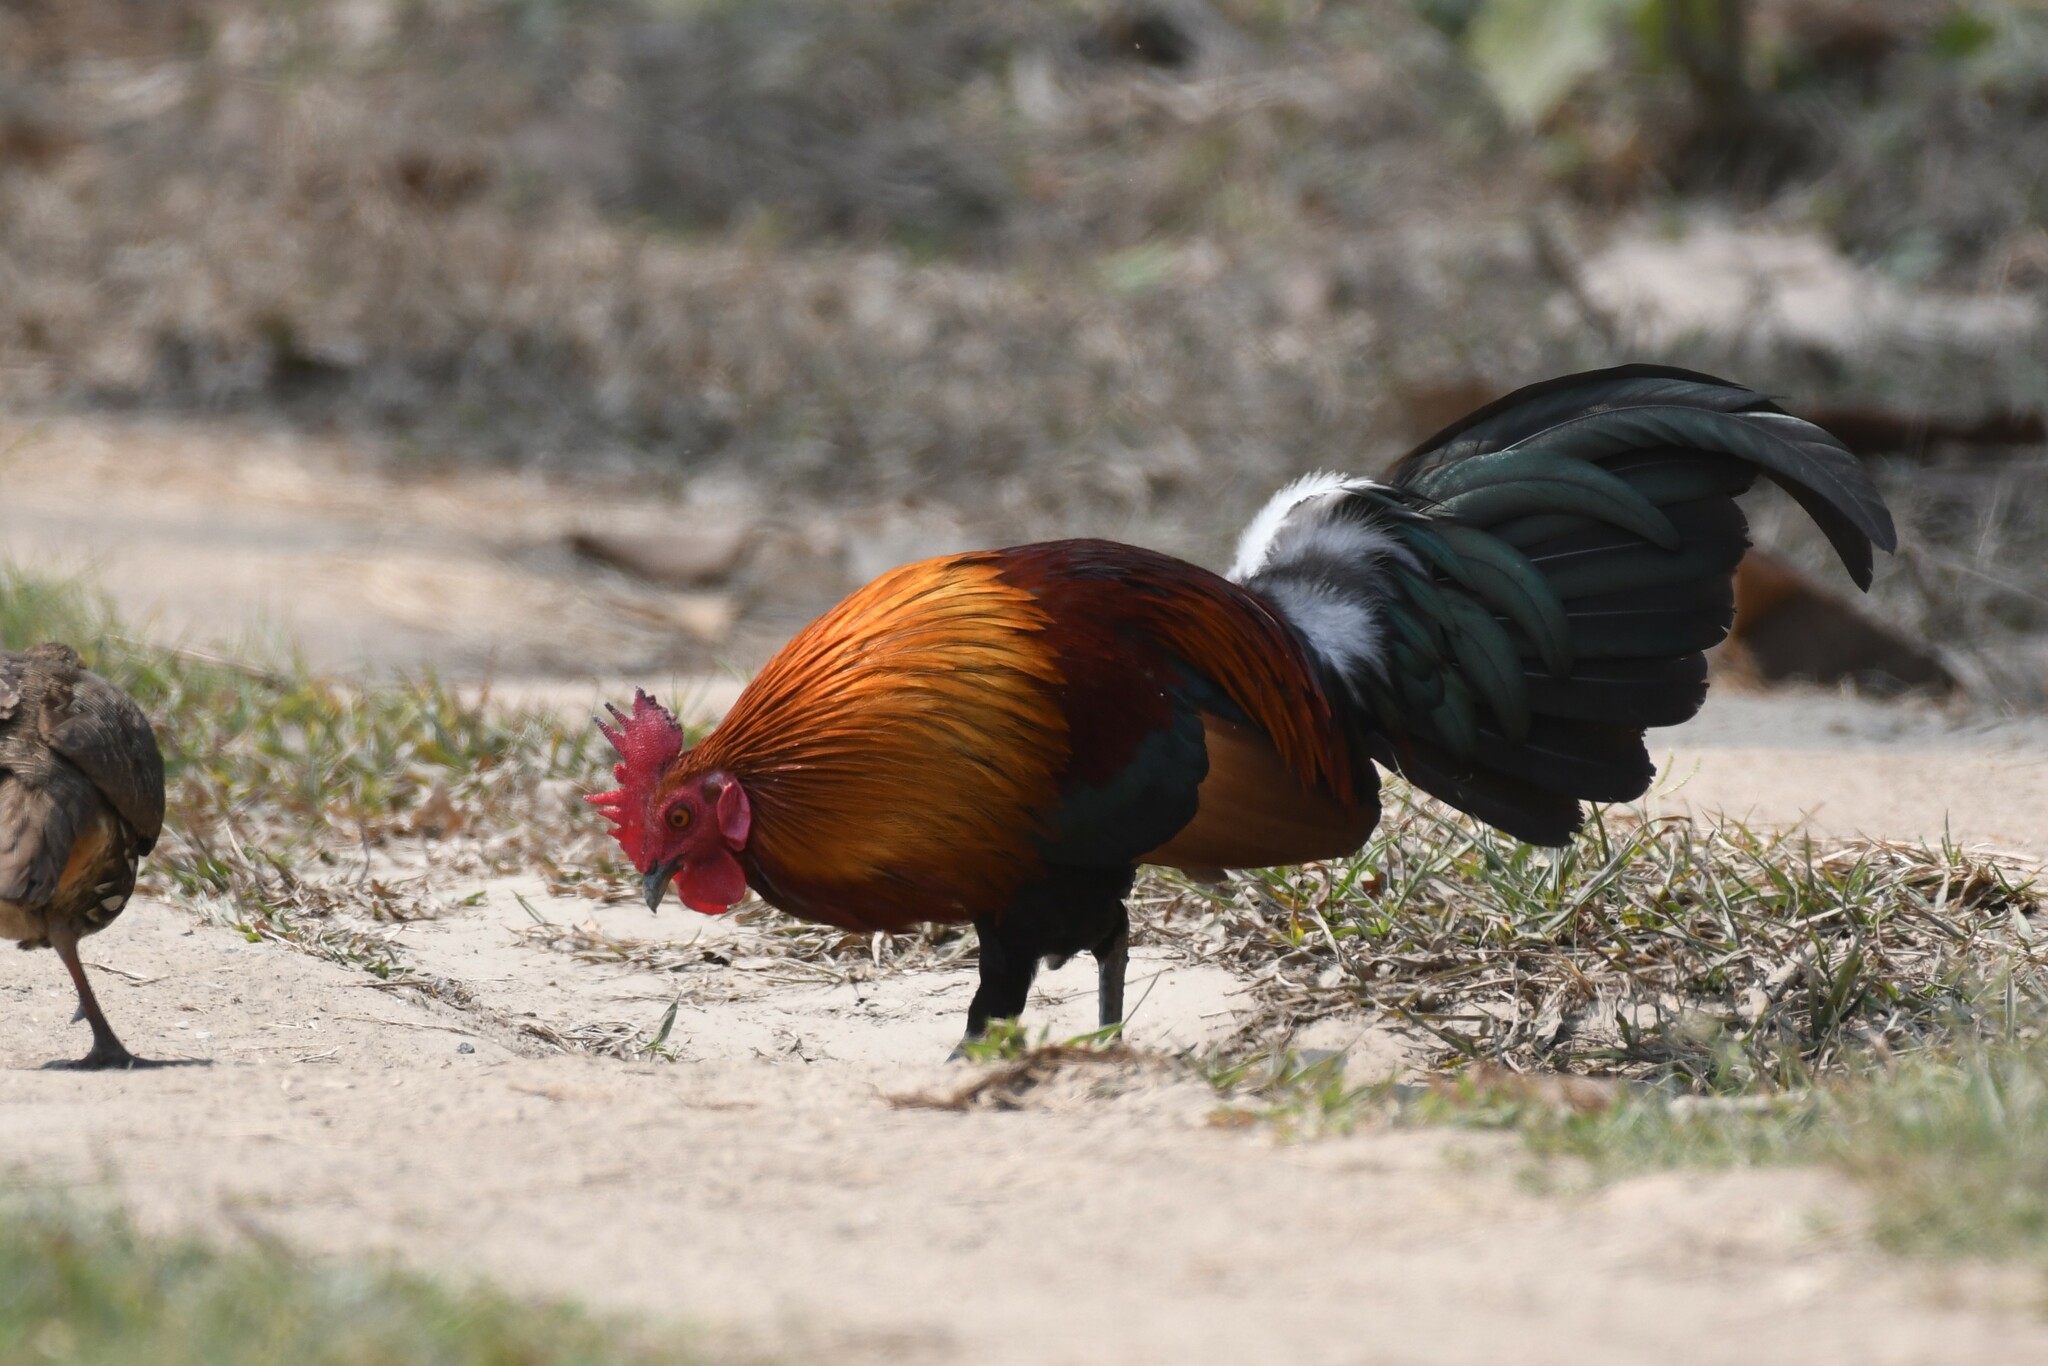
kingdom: Animalia
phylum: Chordata
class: Aves
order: Galliformes
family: Phasianidae
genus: Gallus
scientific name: Gallus gallus
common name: Red junglefowl
